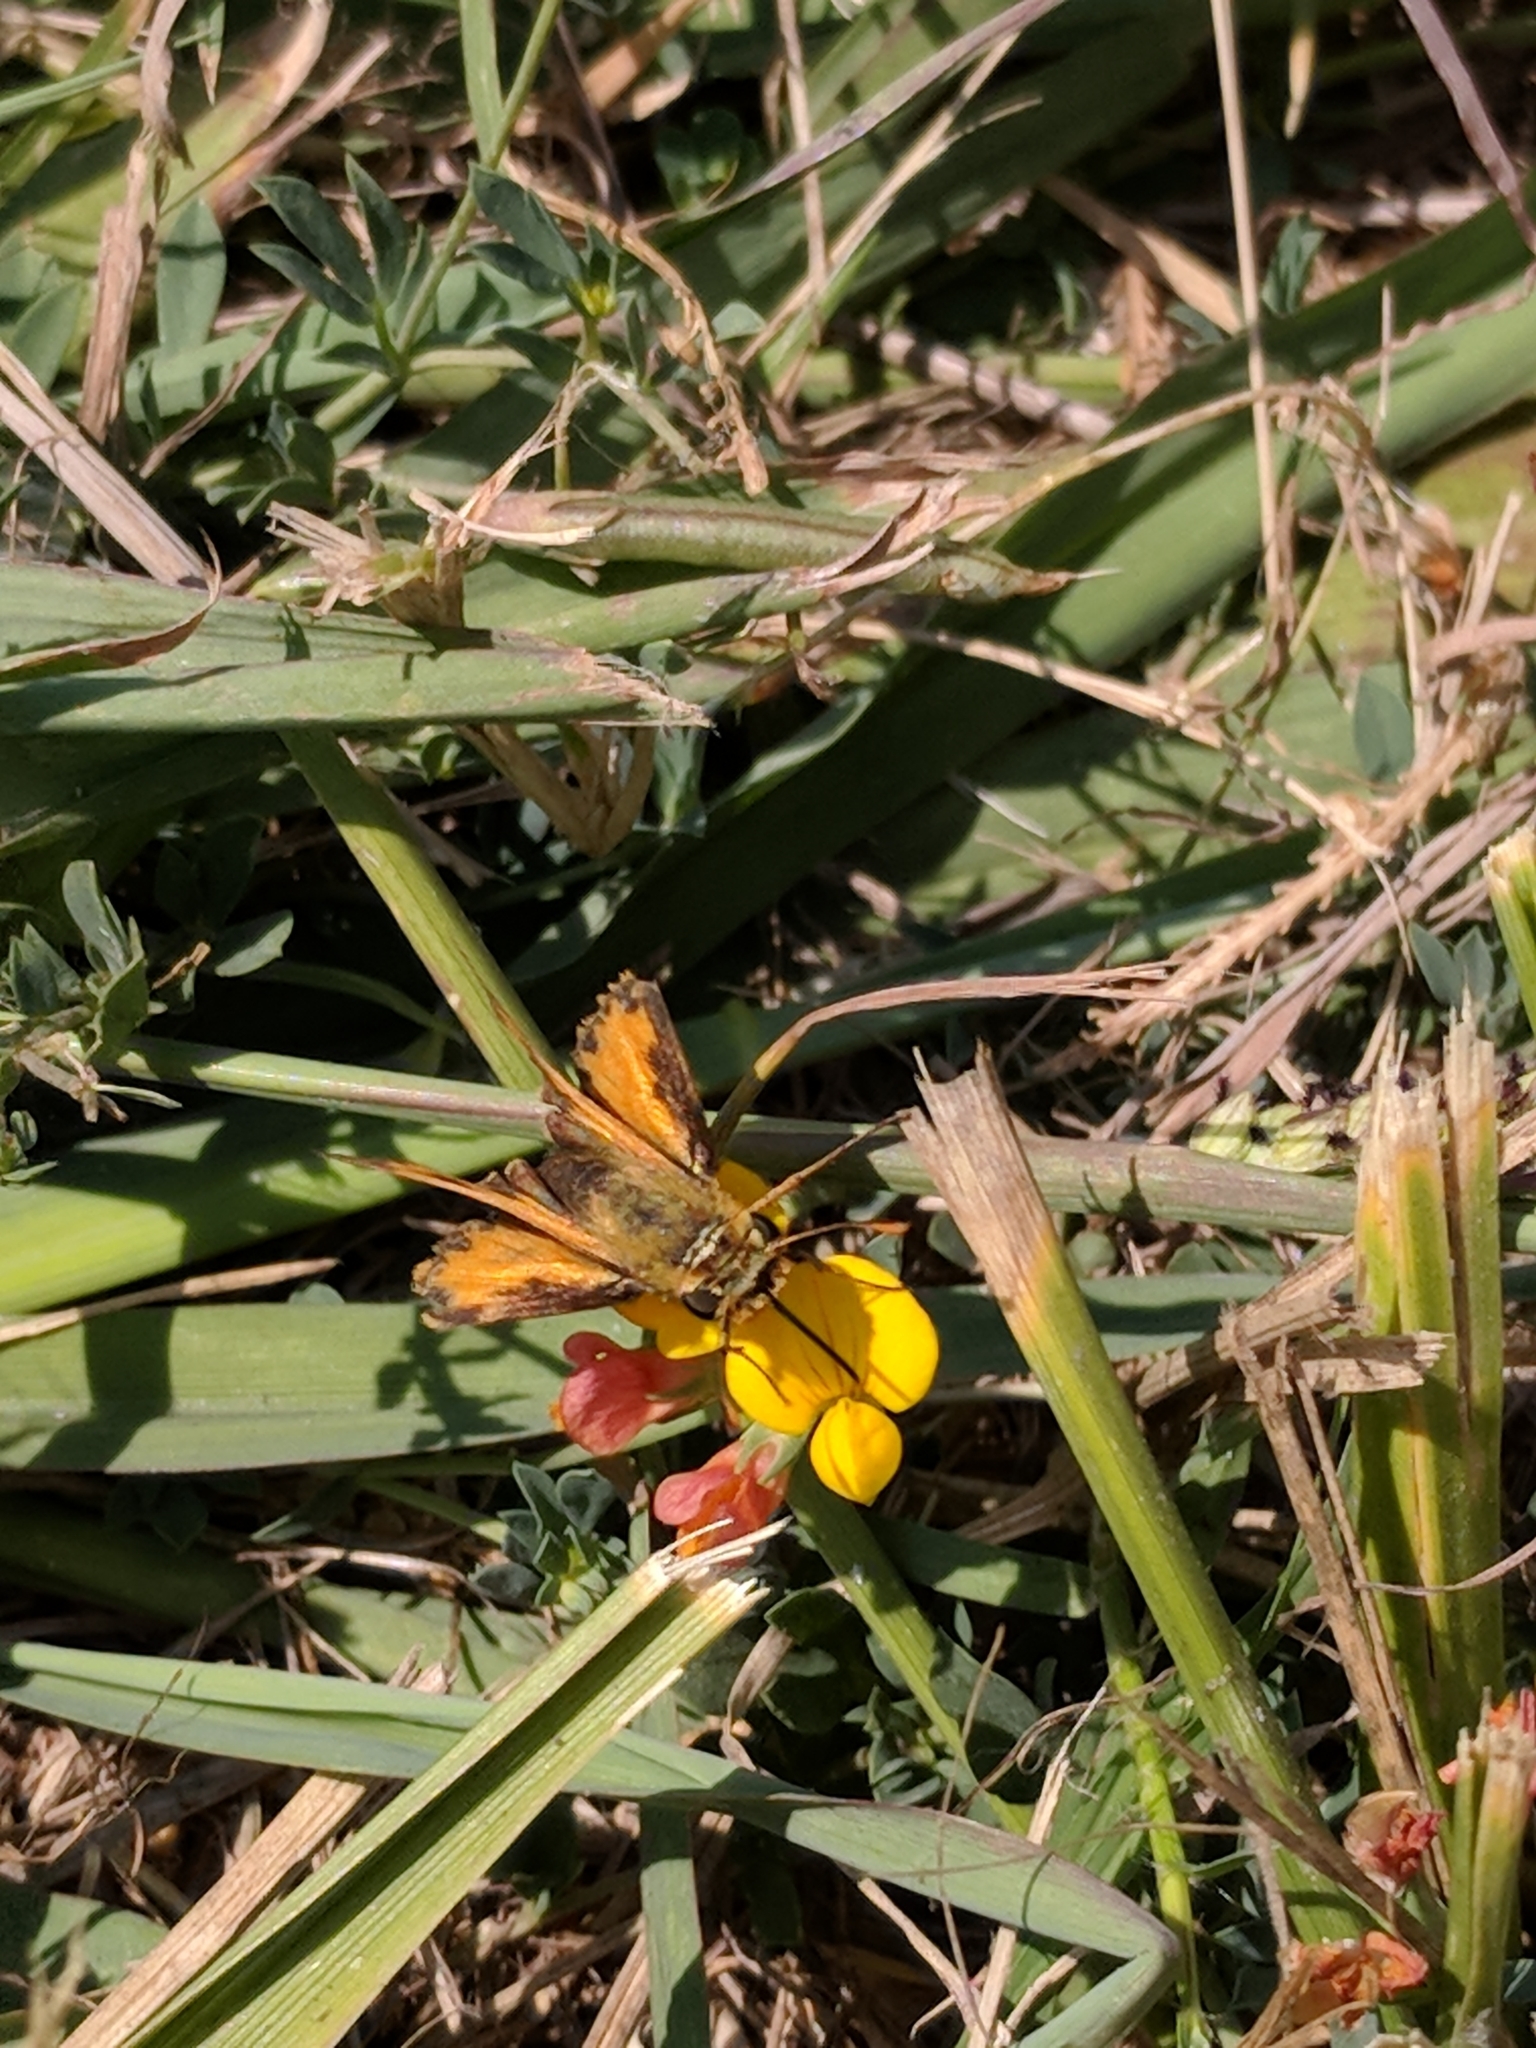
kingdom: Animalia
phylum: Arthropoda
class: Insecta
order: Lepidoptera
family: Hesperiidae
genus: Hylephila
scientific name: Hylephila phyleus
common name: Fiery skipper
